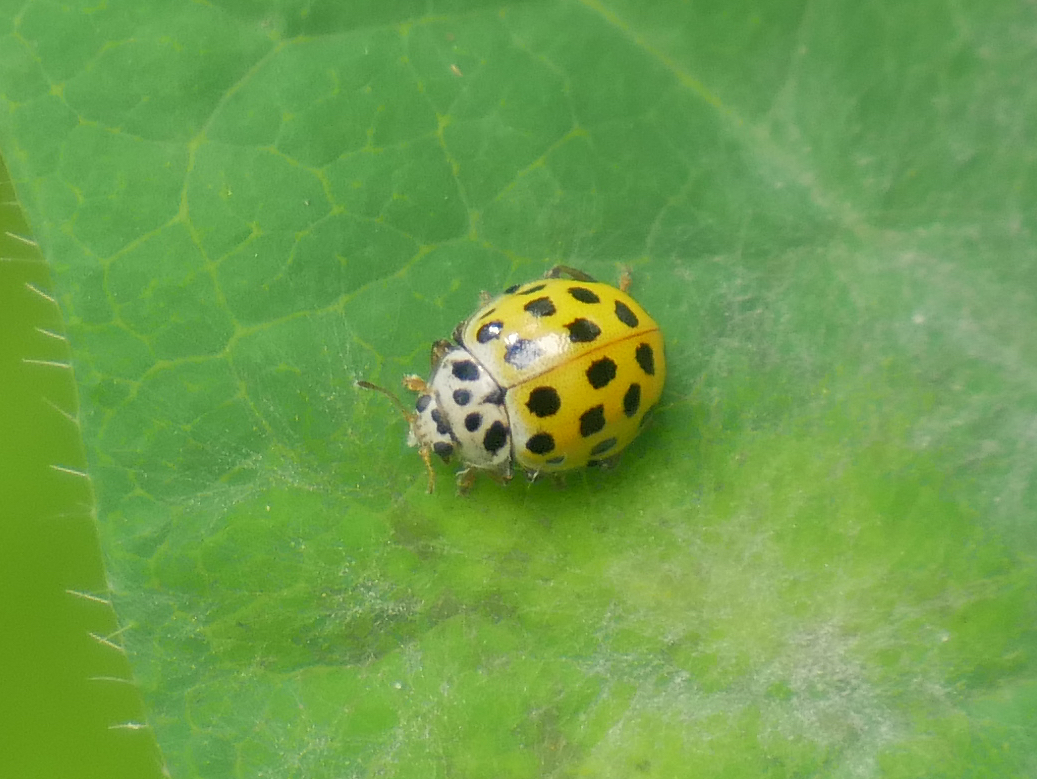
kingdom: Animalia
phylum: Arthropoda
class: Insecta
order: Coleoptera
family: Coccinellidae
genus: Psyllobora
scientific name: Psyllobora vigintiduopunctata
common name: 22-spot ladybird
